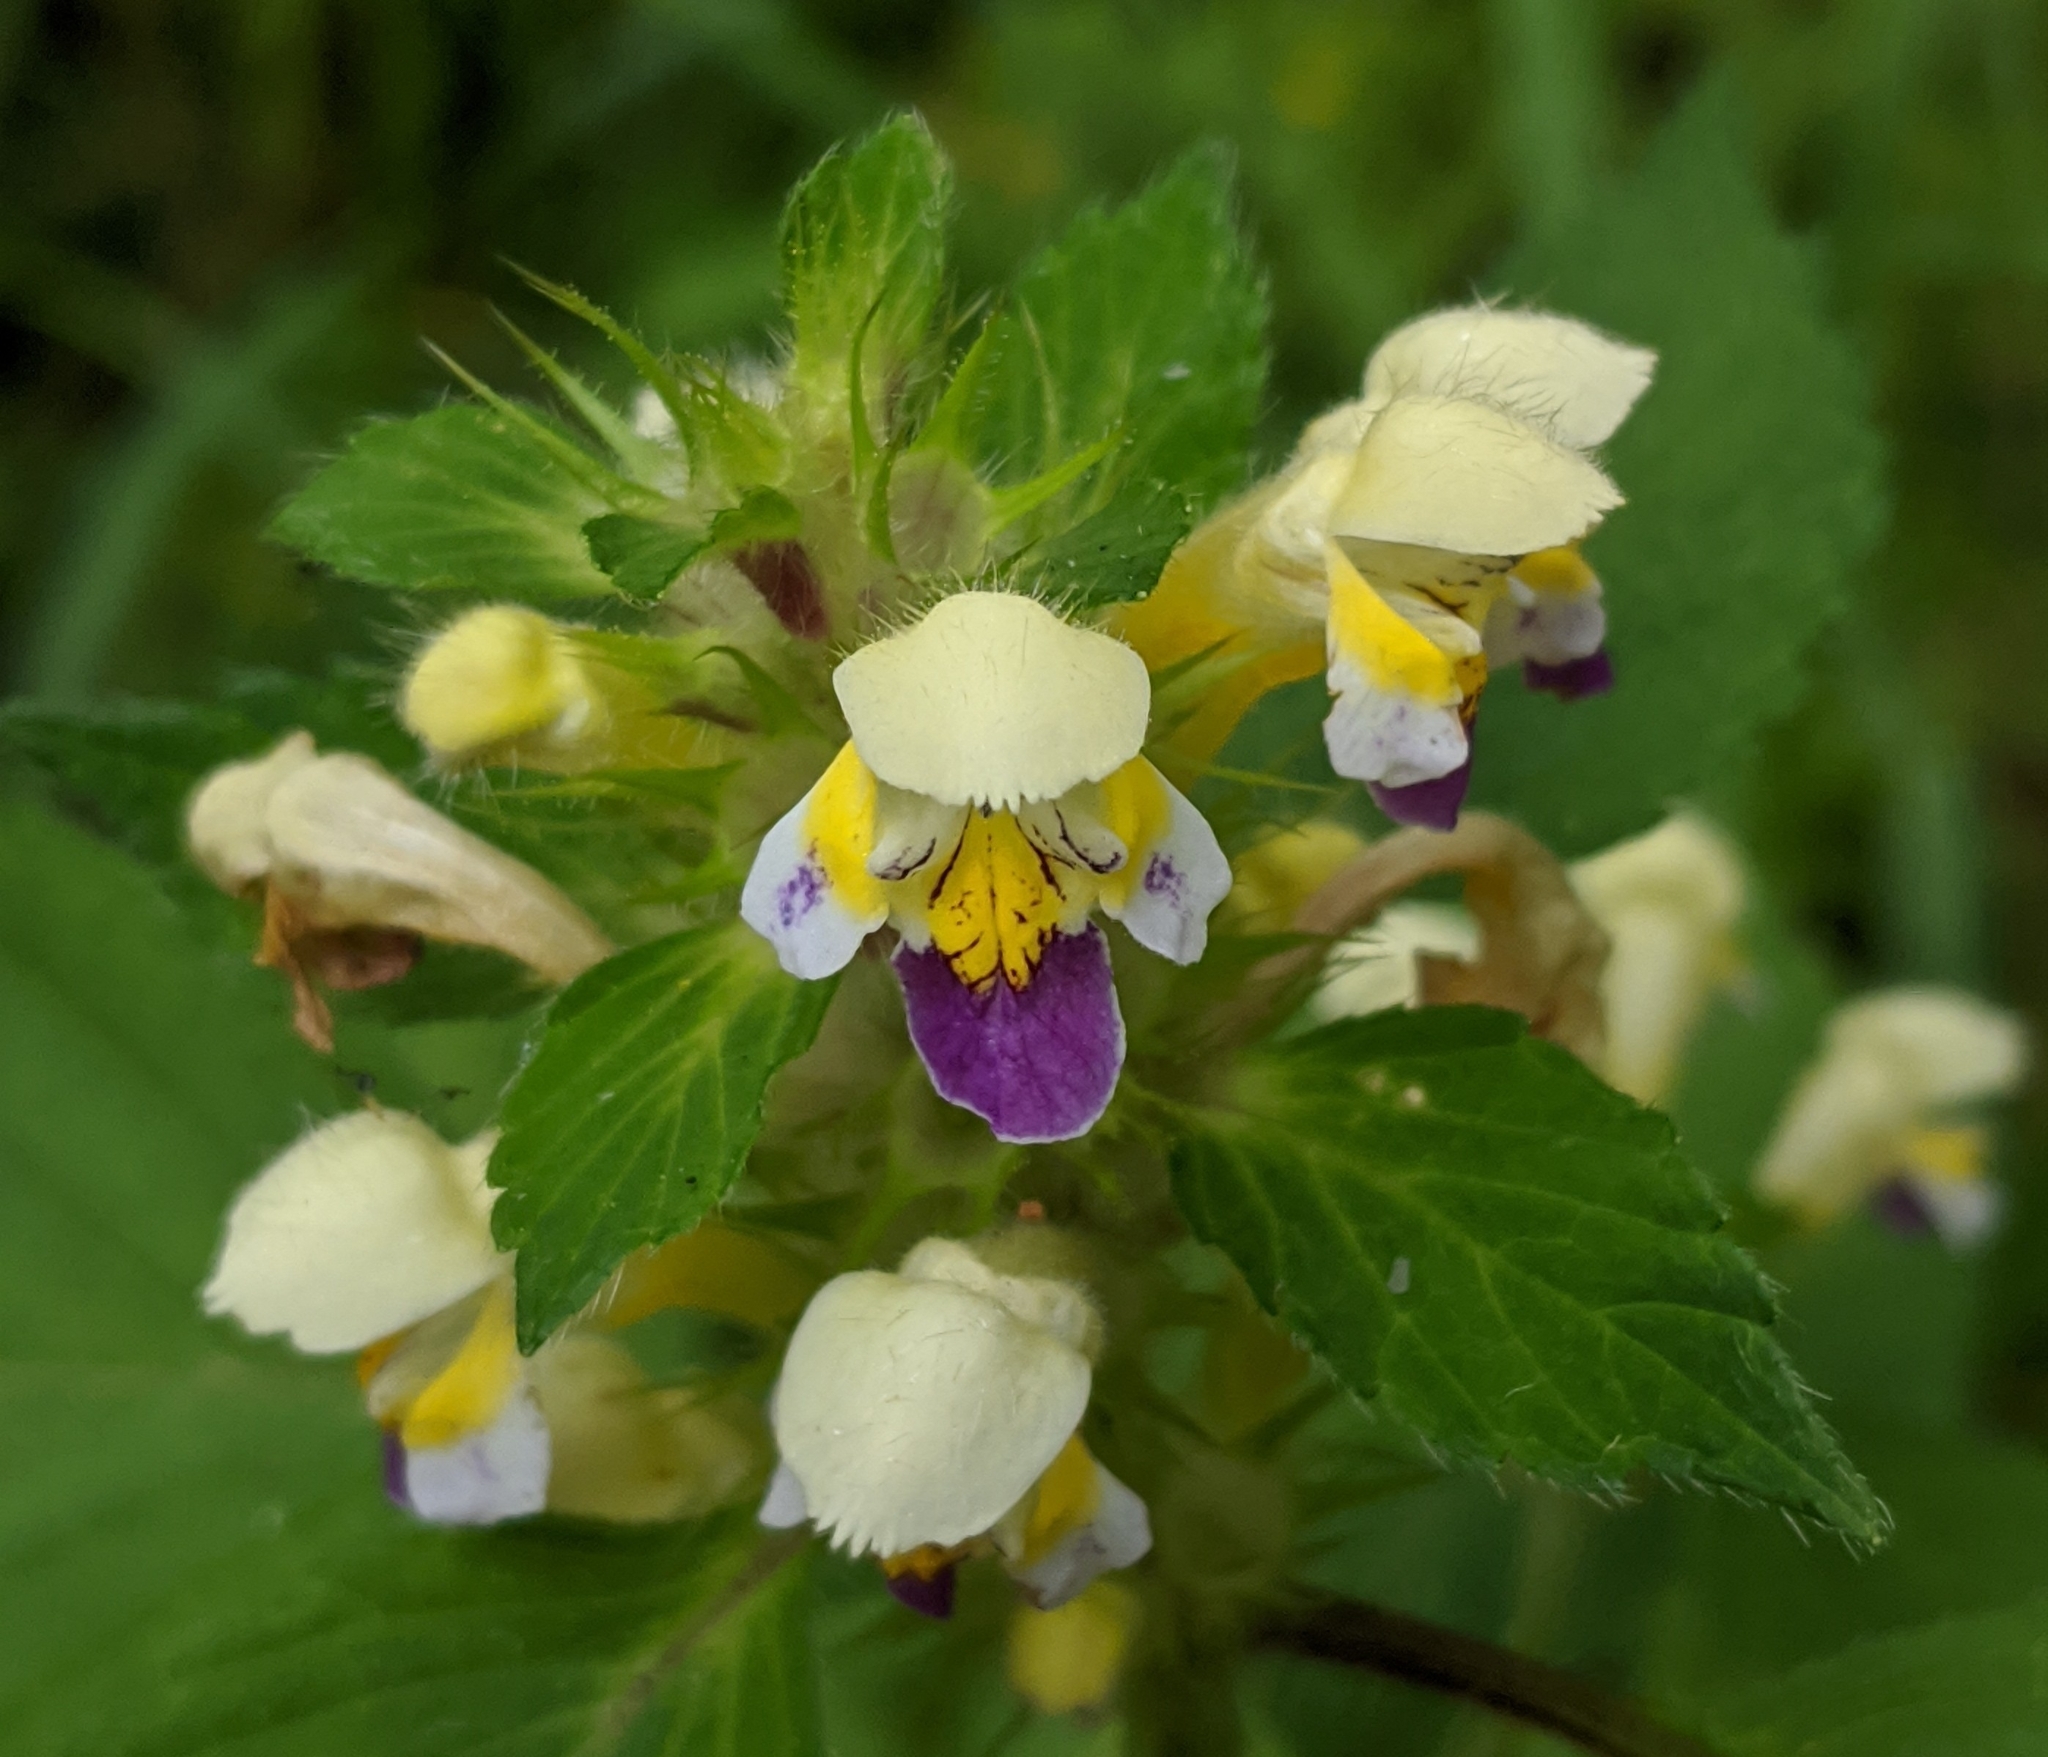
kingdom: Plantae
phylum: Tracheophyta
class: Magnoliopsida
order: Lamiales
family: Lamiaceae
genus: Galeopsis
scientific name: Galeopsis speciosa
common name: Large-flowered hemp-nettle
